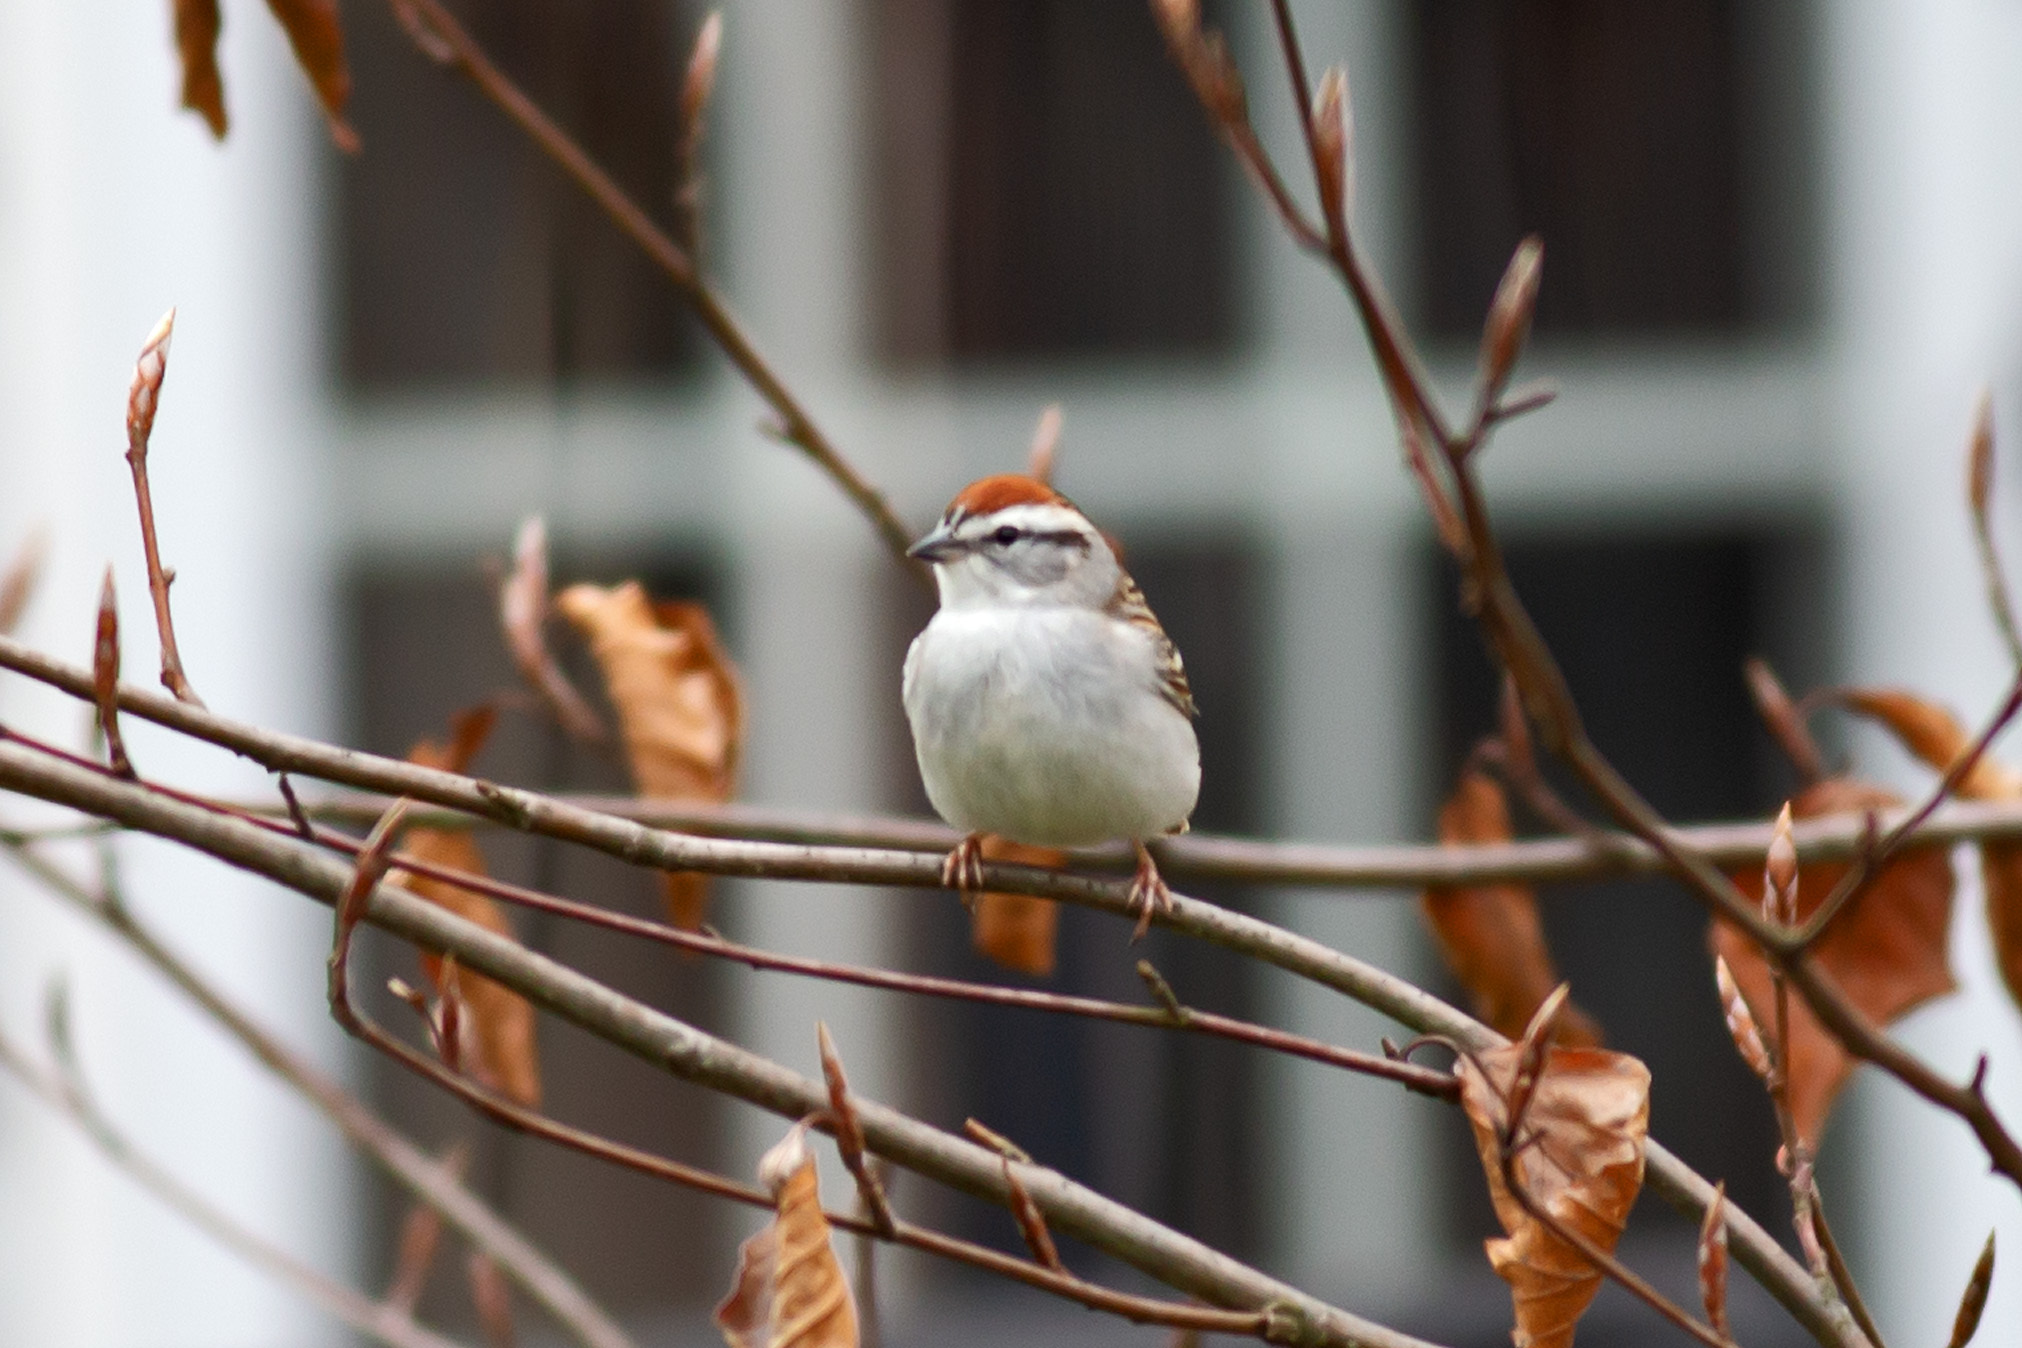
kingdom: Animalia
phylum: Chordata
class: Aves
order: Passeriformes
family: Passerellidae
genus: Spizella
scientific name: Spizella passerina
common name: Chipping sparrow
